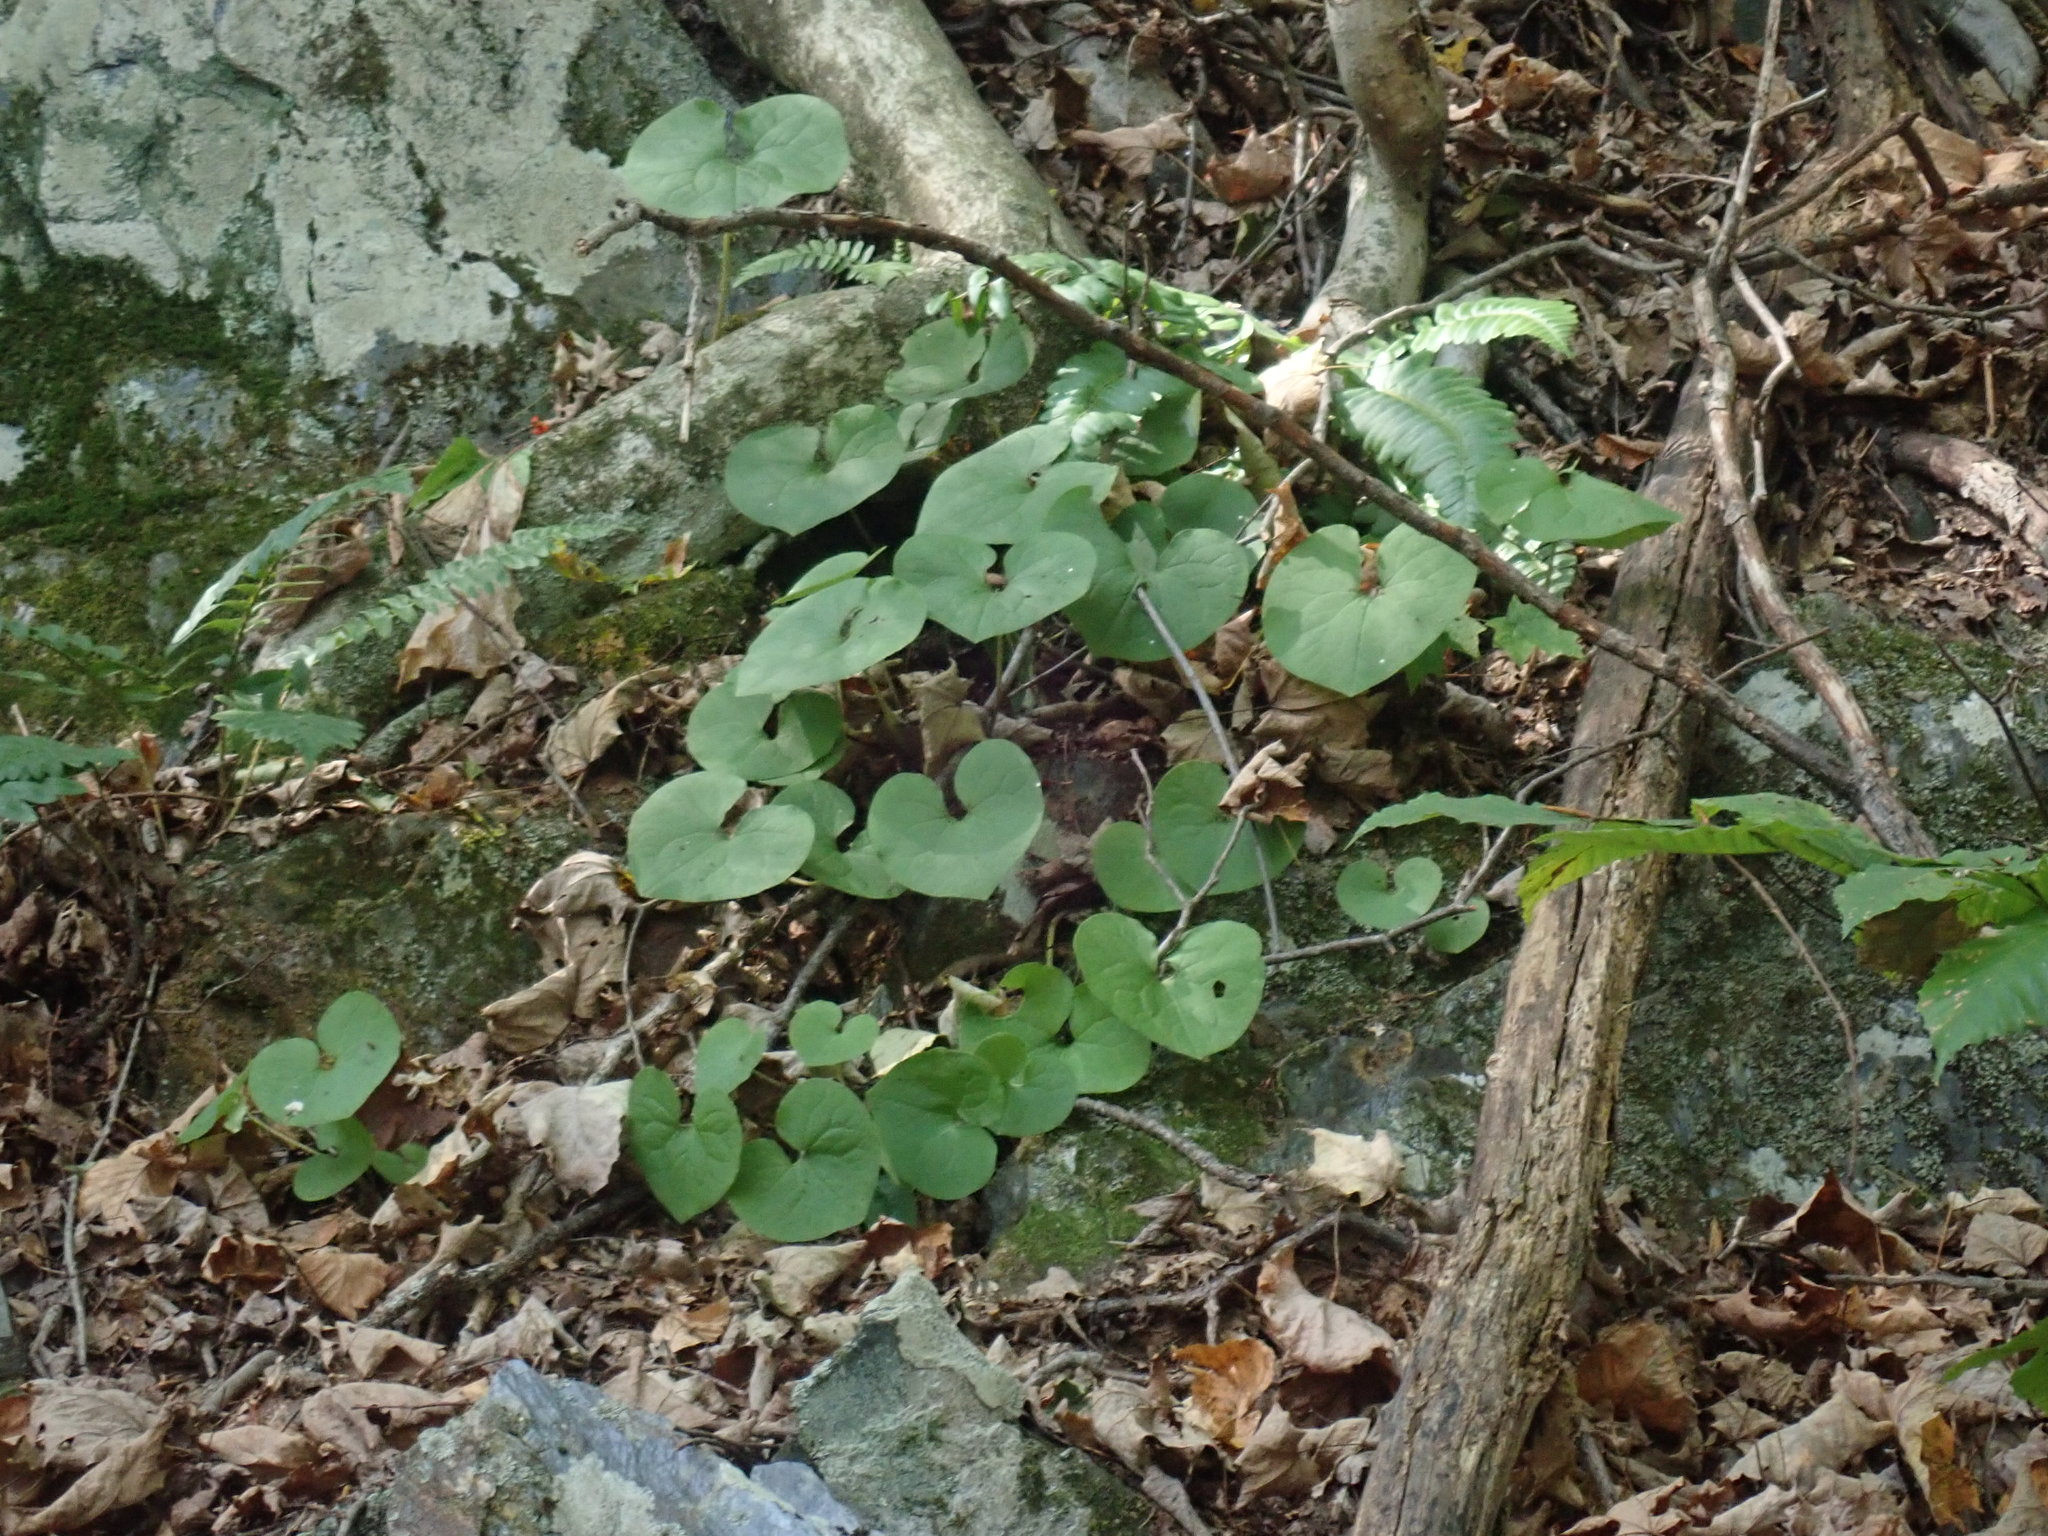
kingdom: Plantae
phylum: Tracheophyta
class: Magnoliopsida
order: Piperales
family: Aristolochiaceae
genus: Asarum
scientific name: Asarum canadense
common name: Wild ginger
